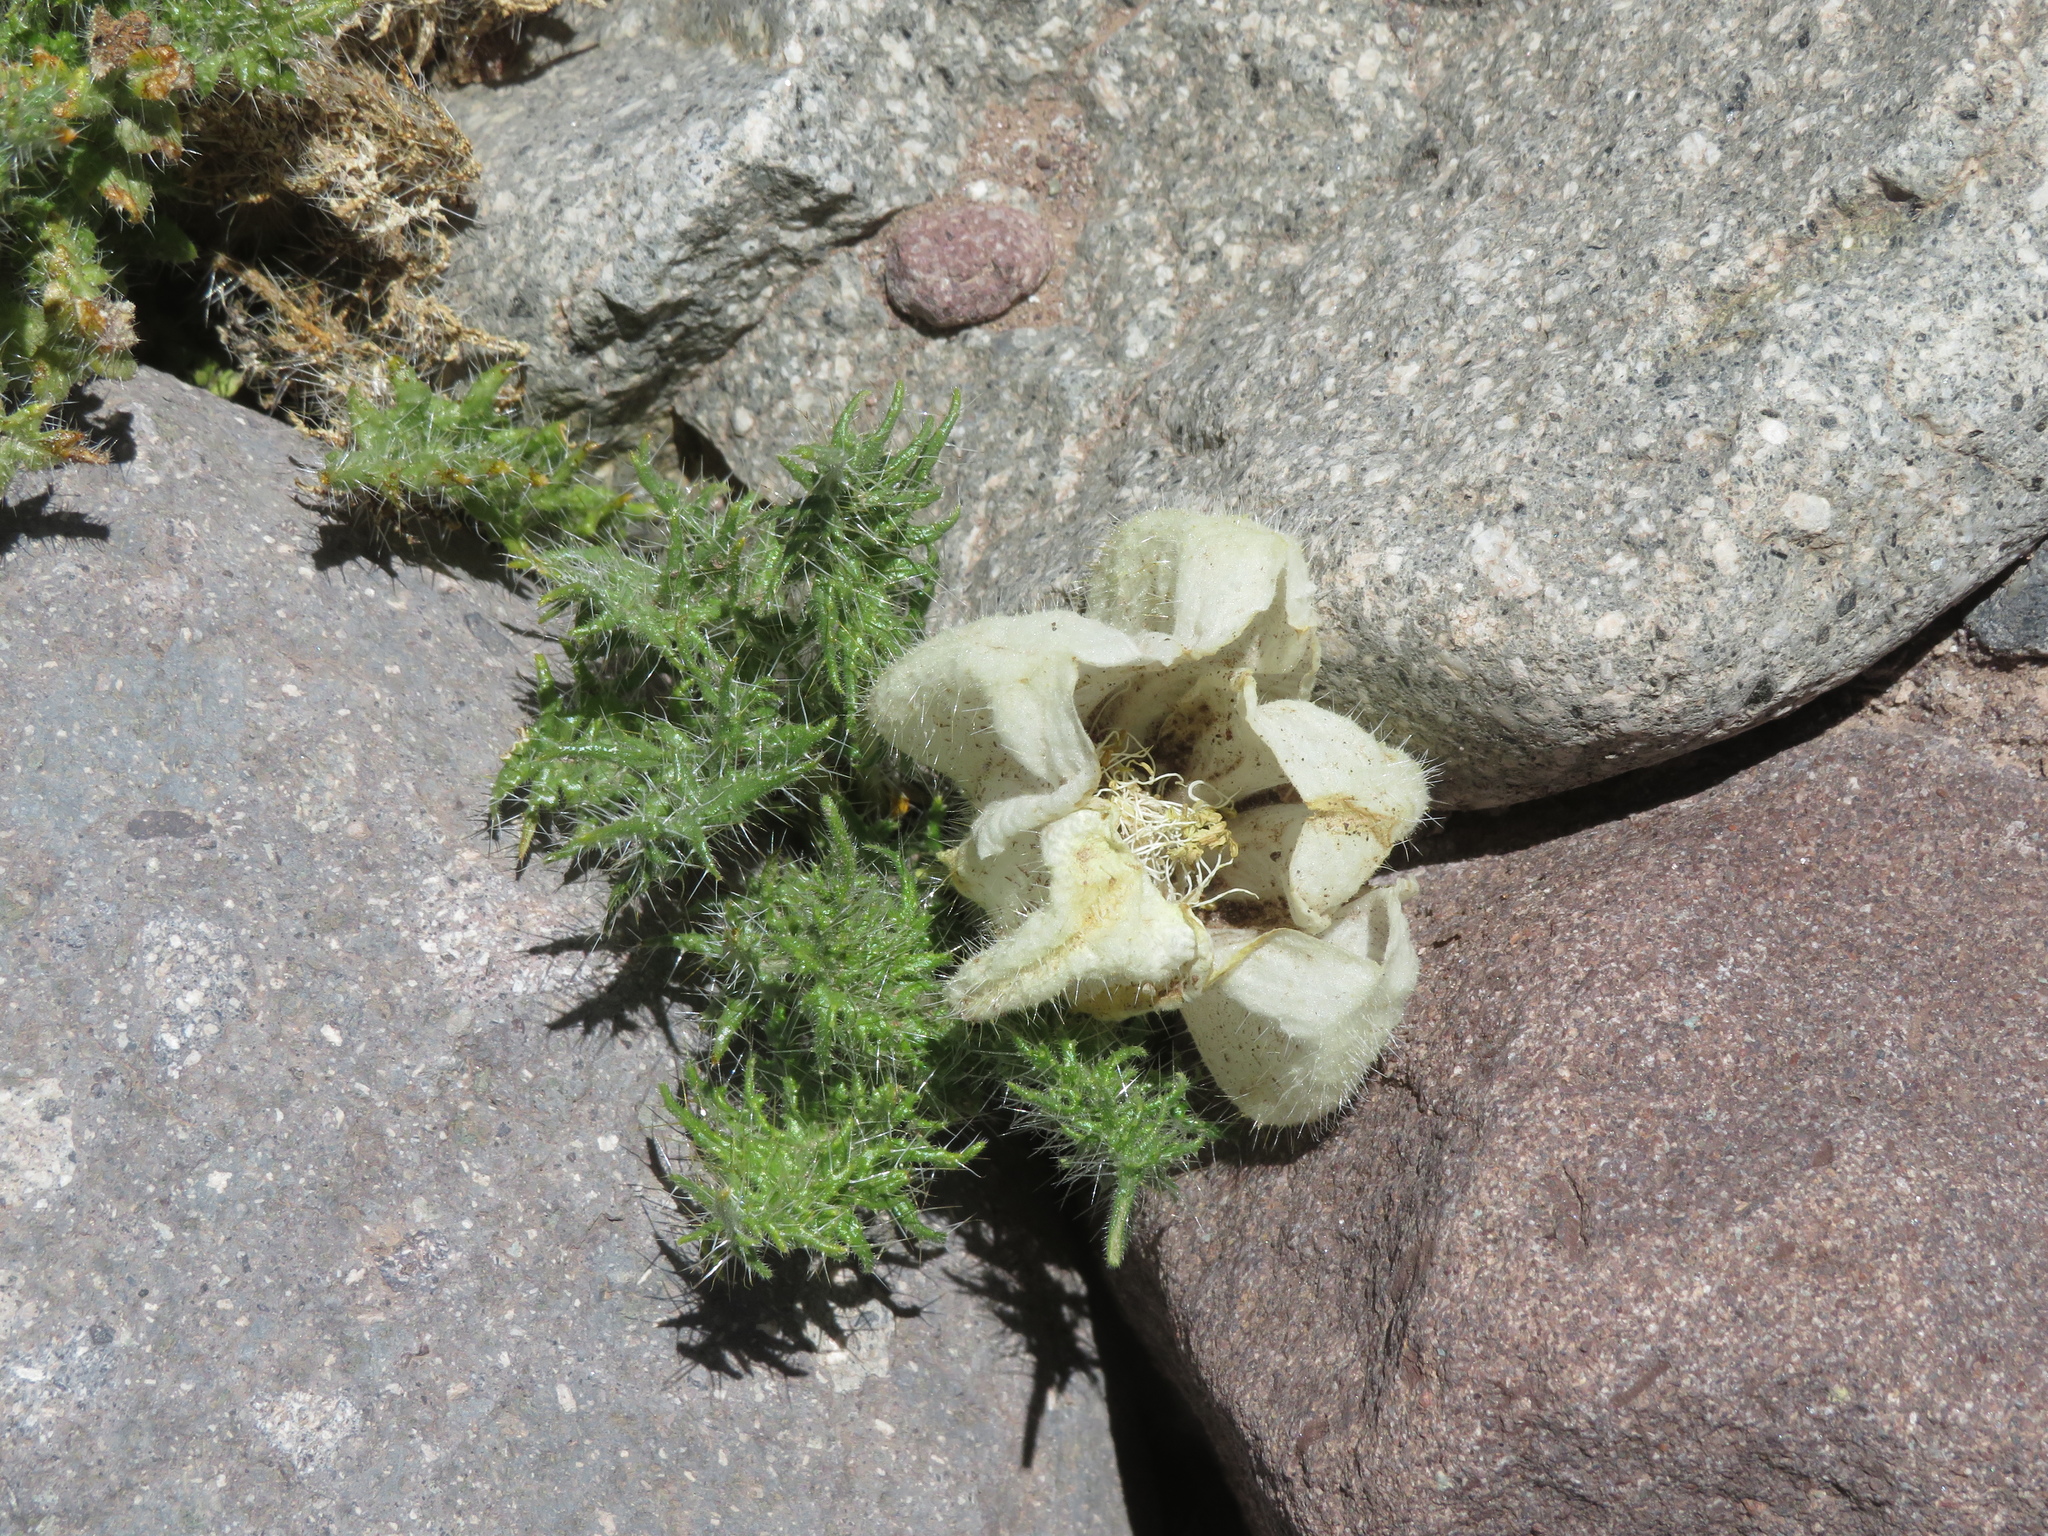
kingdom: Plantae
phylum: Tracheophyta
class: Magnoliopsida
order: Cornales
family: Loasaceae
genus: Caiophora
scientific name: Caiophora coronata
